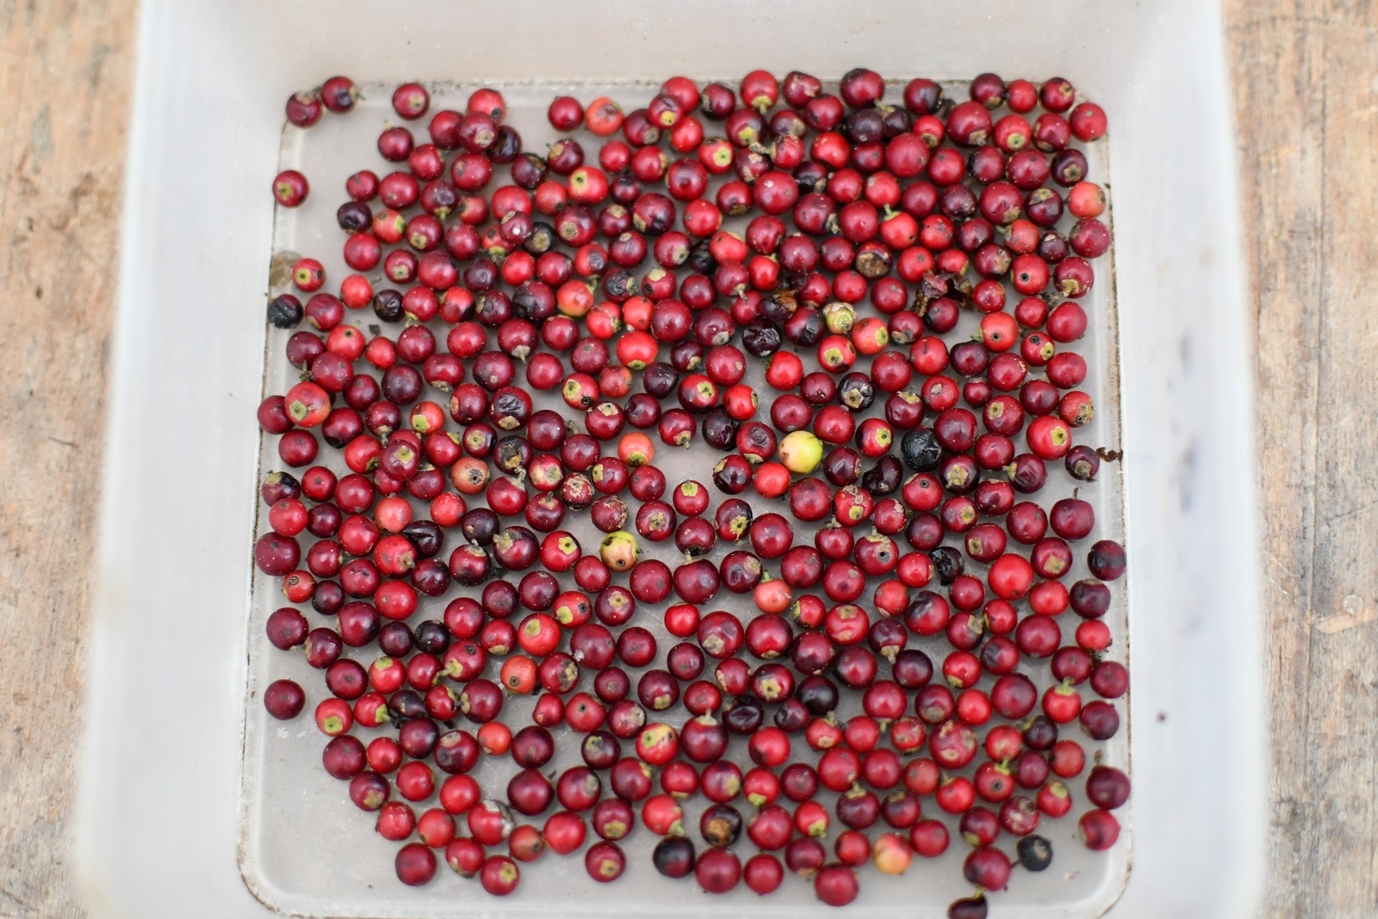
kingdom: Plantae
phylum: Tracheophyta
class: Magnoliopsida
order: Aquifoliales
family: Aquifoliaceae
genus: Ilex
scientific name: Ilex vomitoria
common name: Yaupon holly
